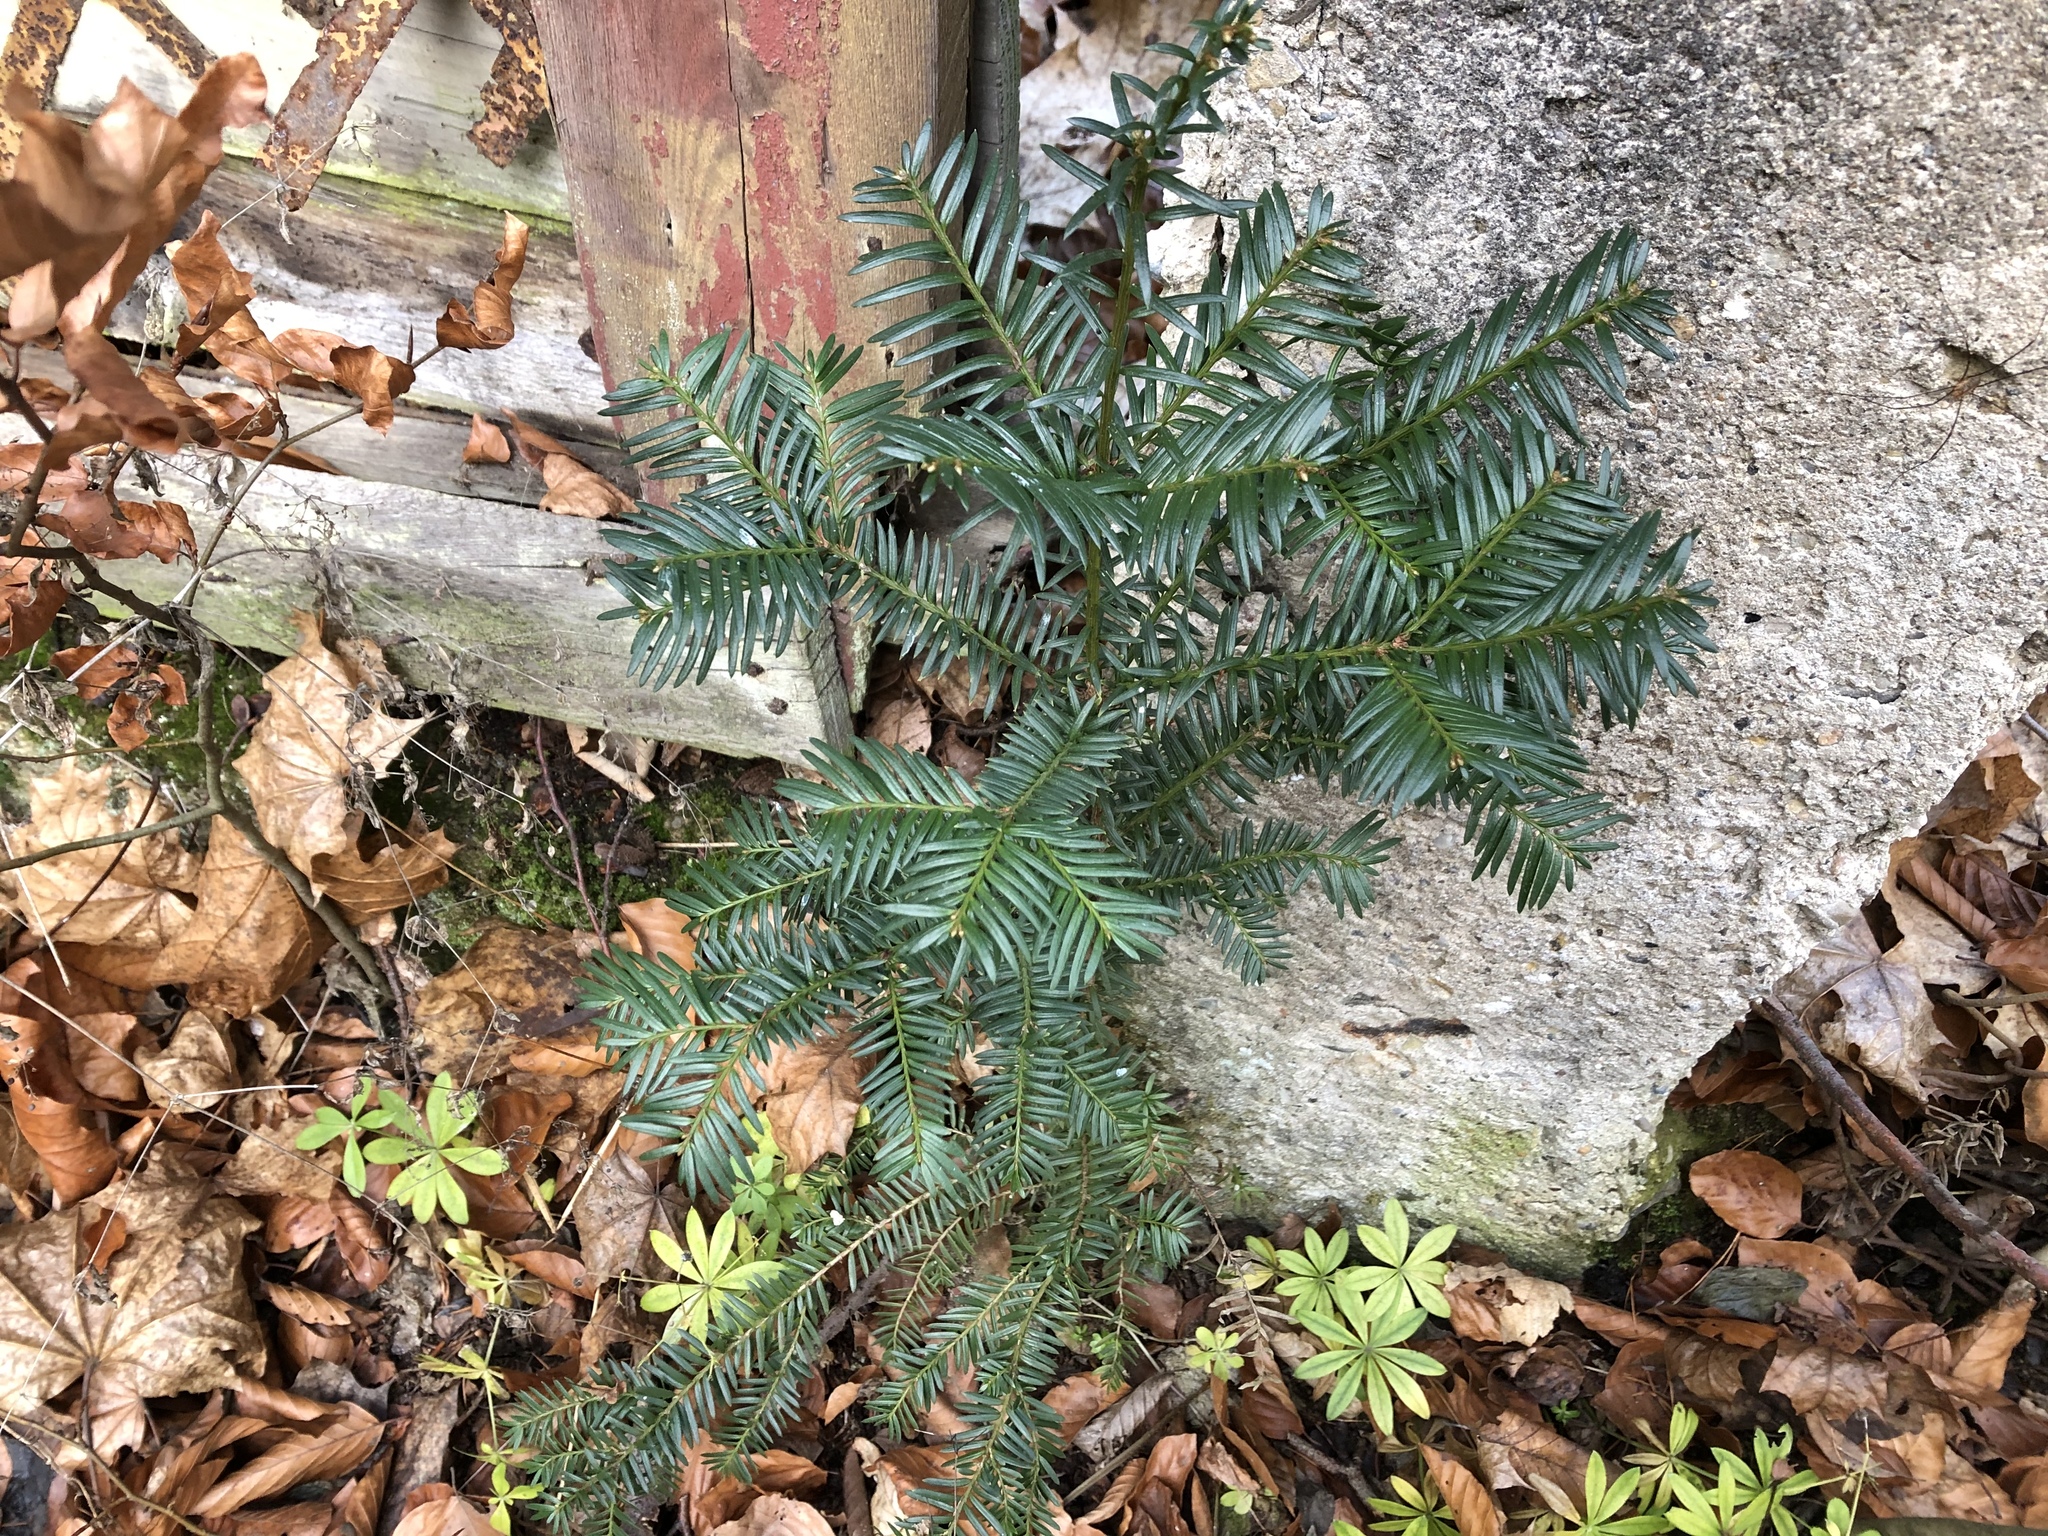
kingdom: Plantae
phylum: Tracheophyta
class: Pinopsida
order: Pinales
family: Taxaceae
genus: Taxus
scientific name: Taxus baccata
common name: Yew
